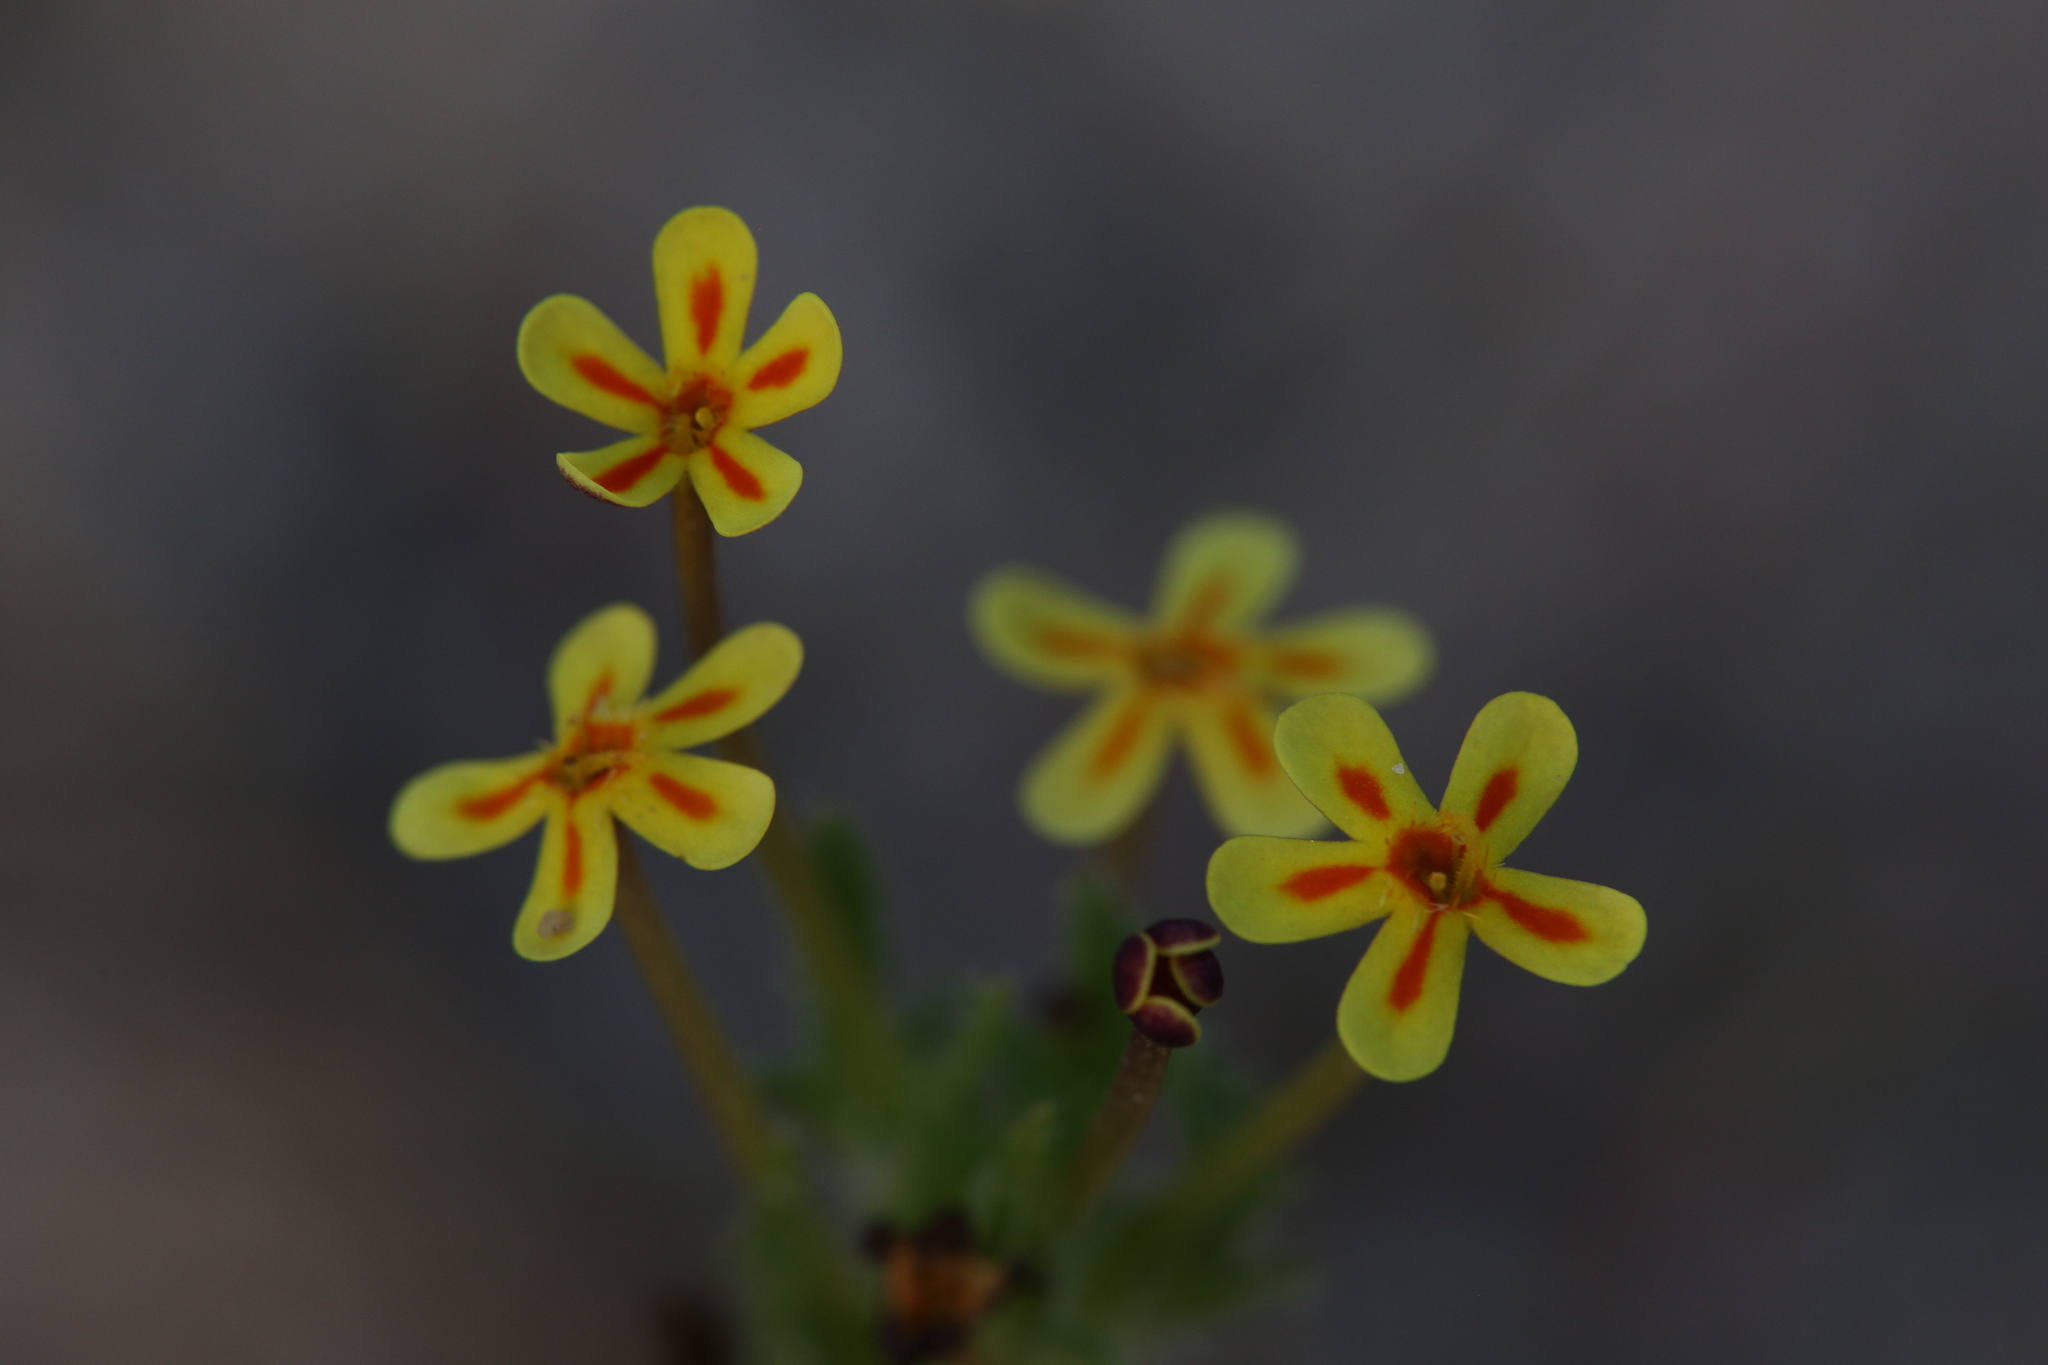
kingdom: Plantae
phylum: Tracheophyta
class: Magnoliopsida
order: Lamiales
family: Scrophulariaceae
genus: Zaluzianskya
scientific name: Zaluzianskya divaricata
